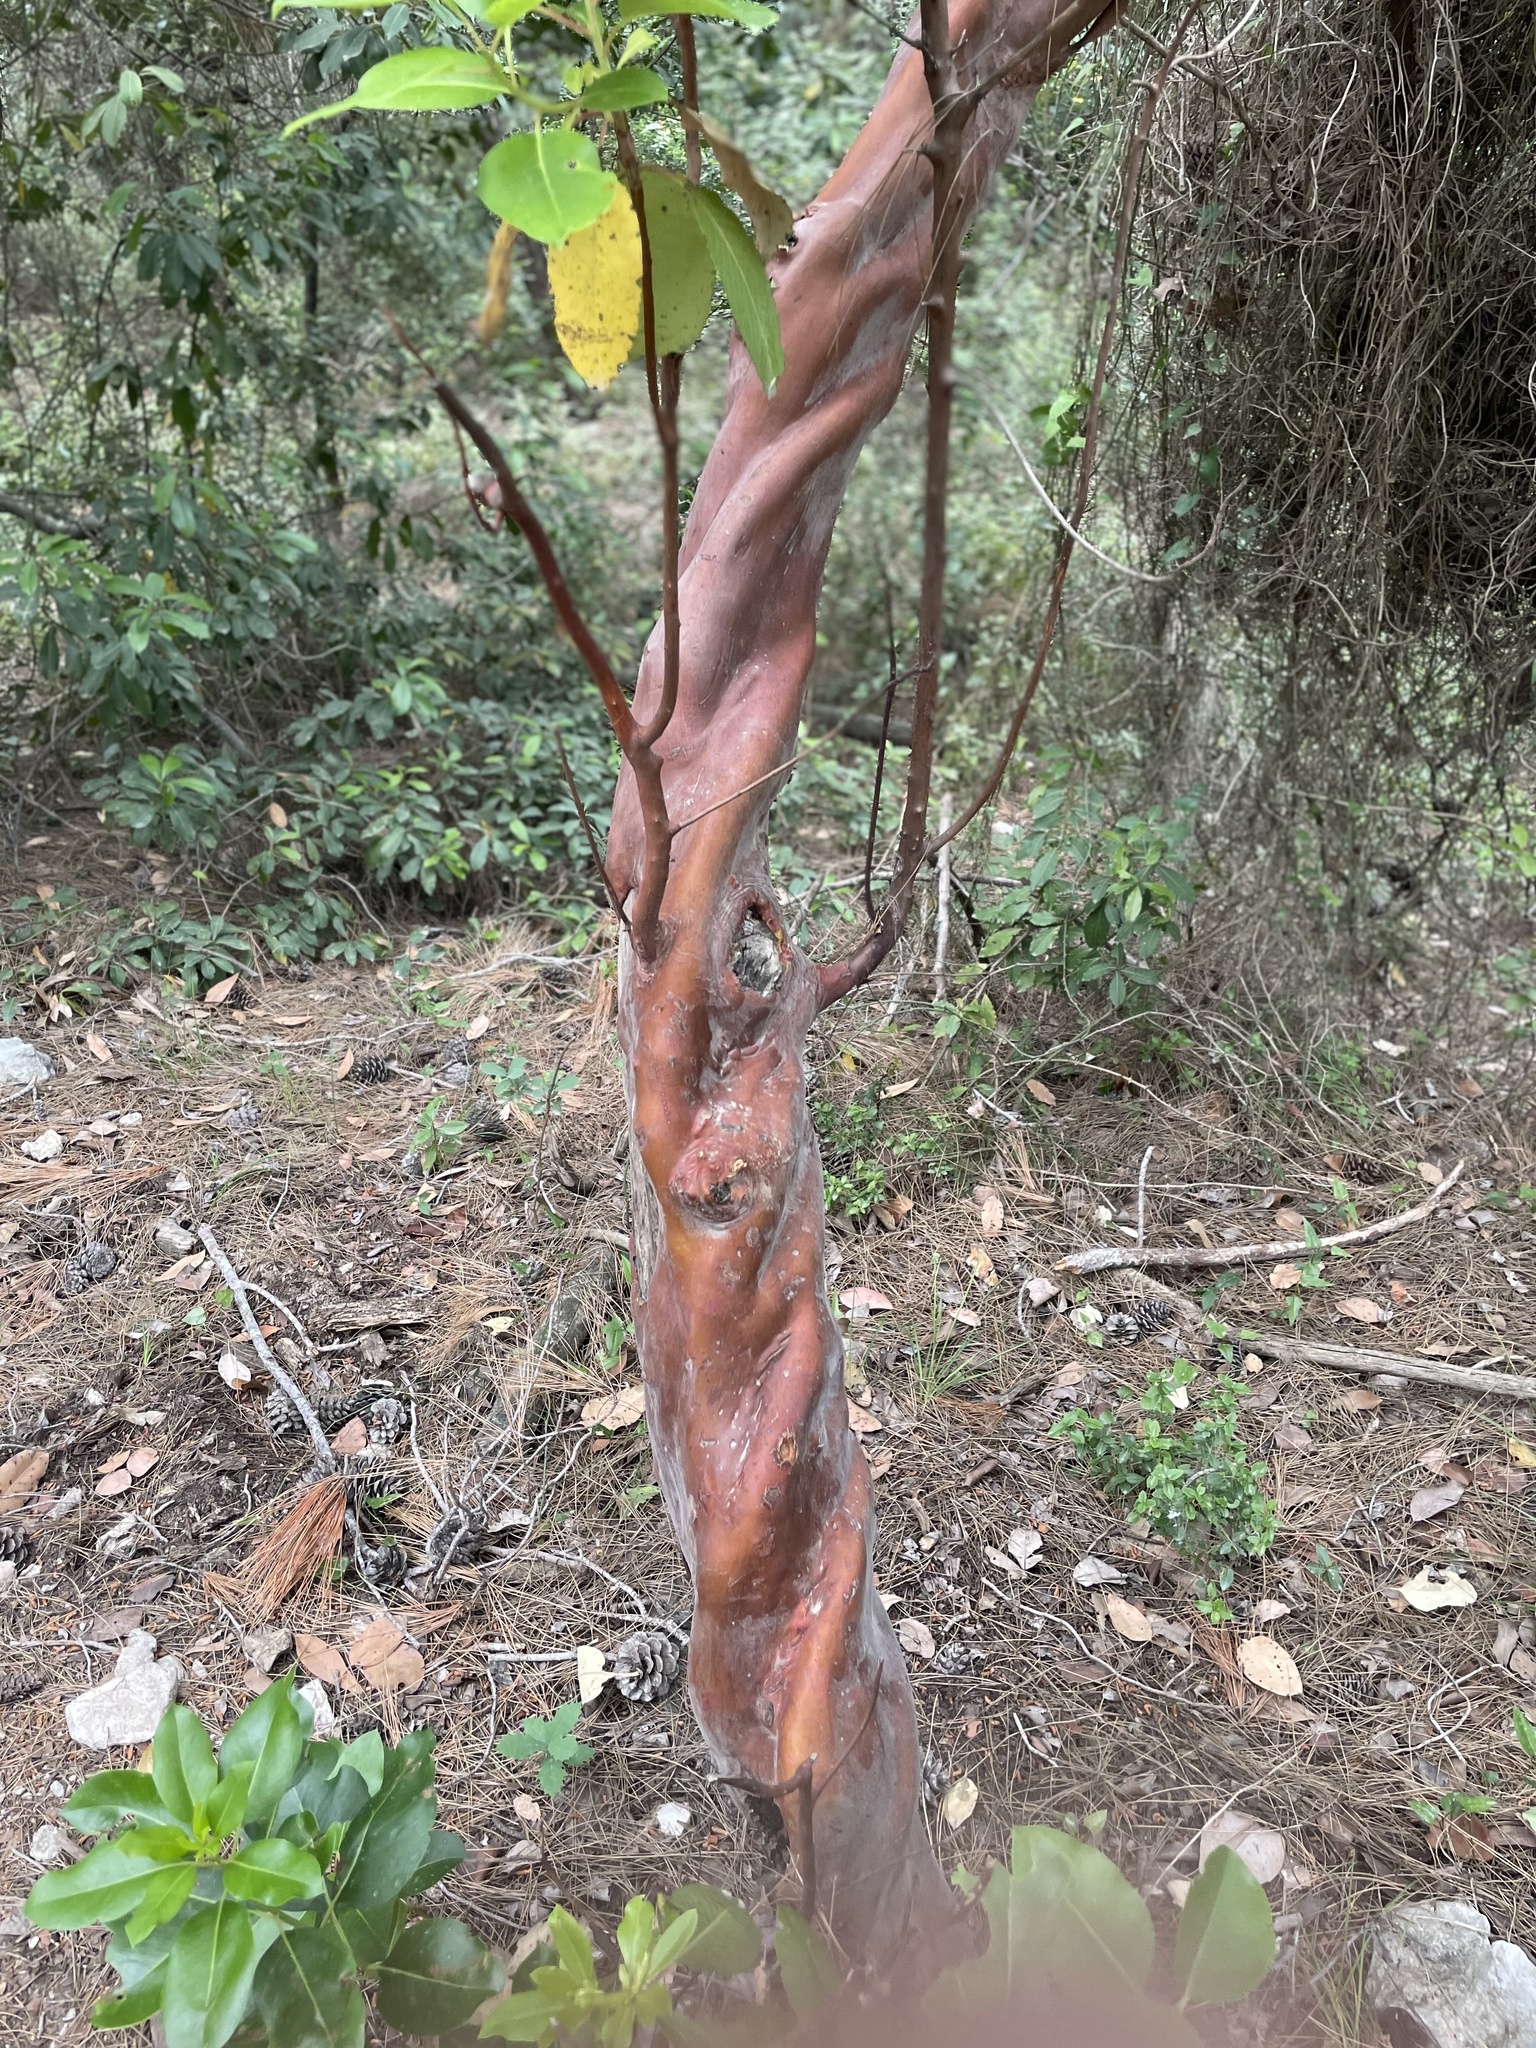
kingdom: Plantae
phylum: Tracheophyta
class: Magnoliopsida
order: Ericales
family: Ericaceae
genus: Arbutus
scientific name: Arbutus andrachne
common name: Greek strawberry tree
